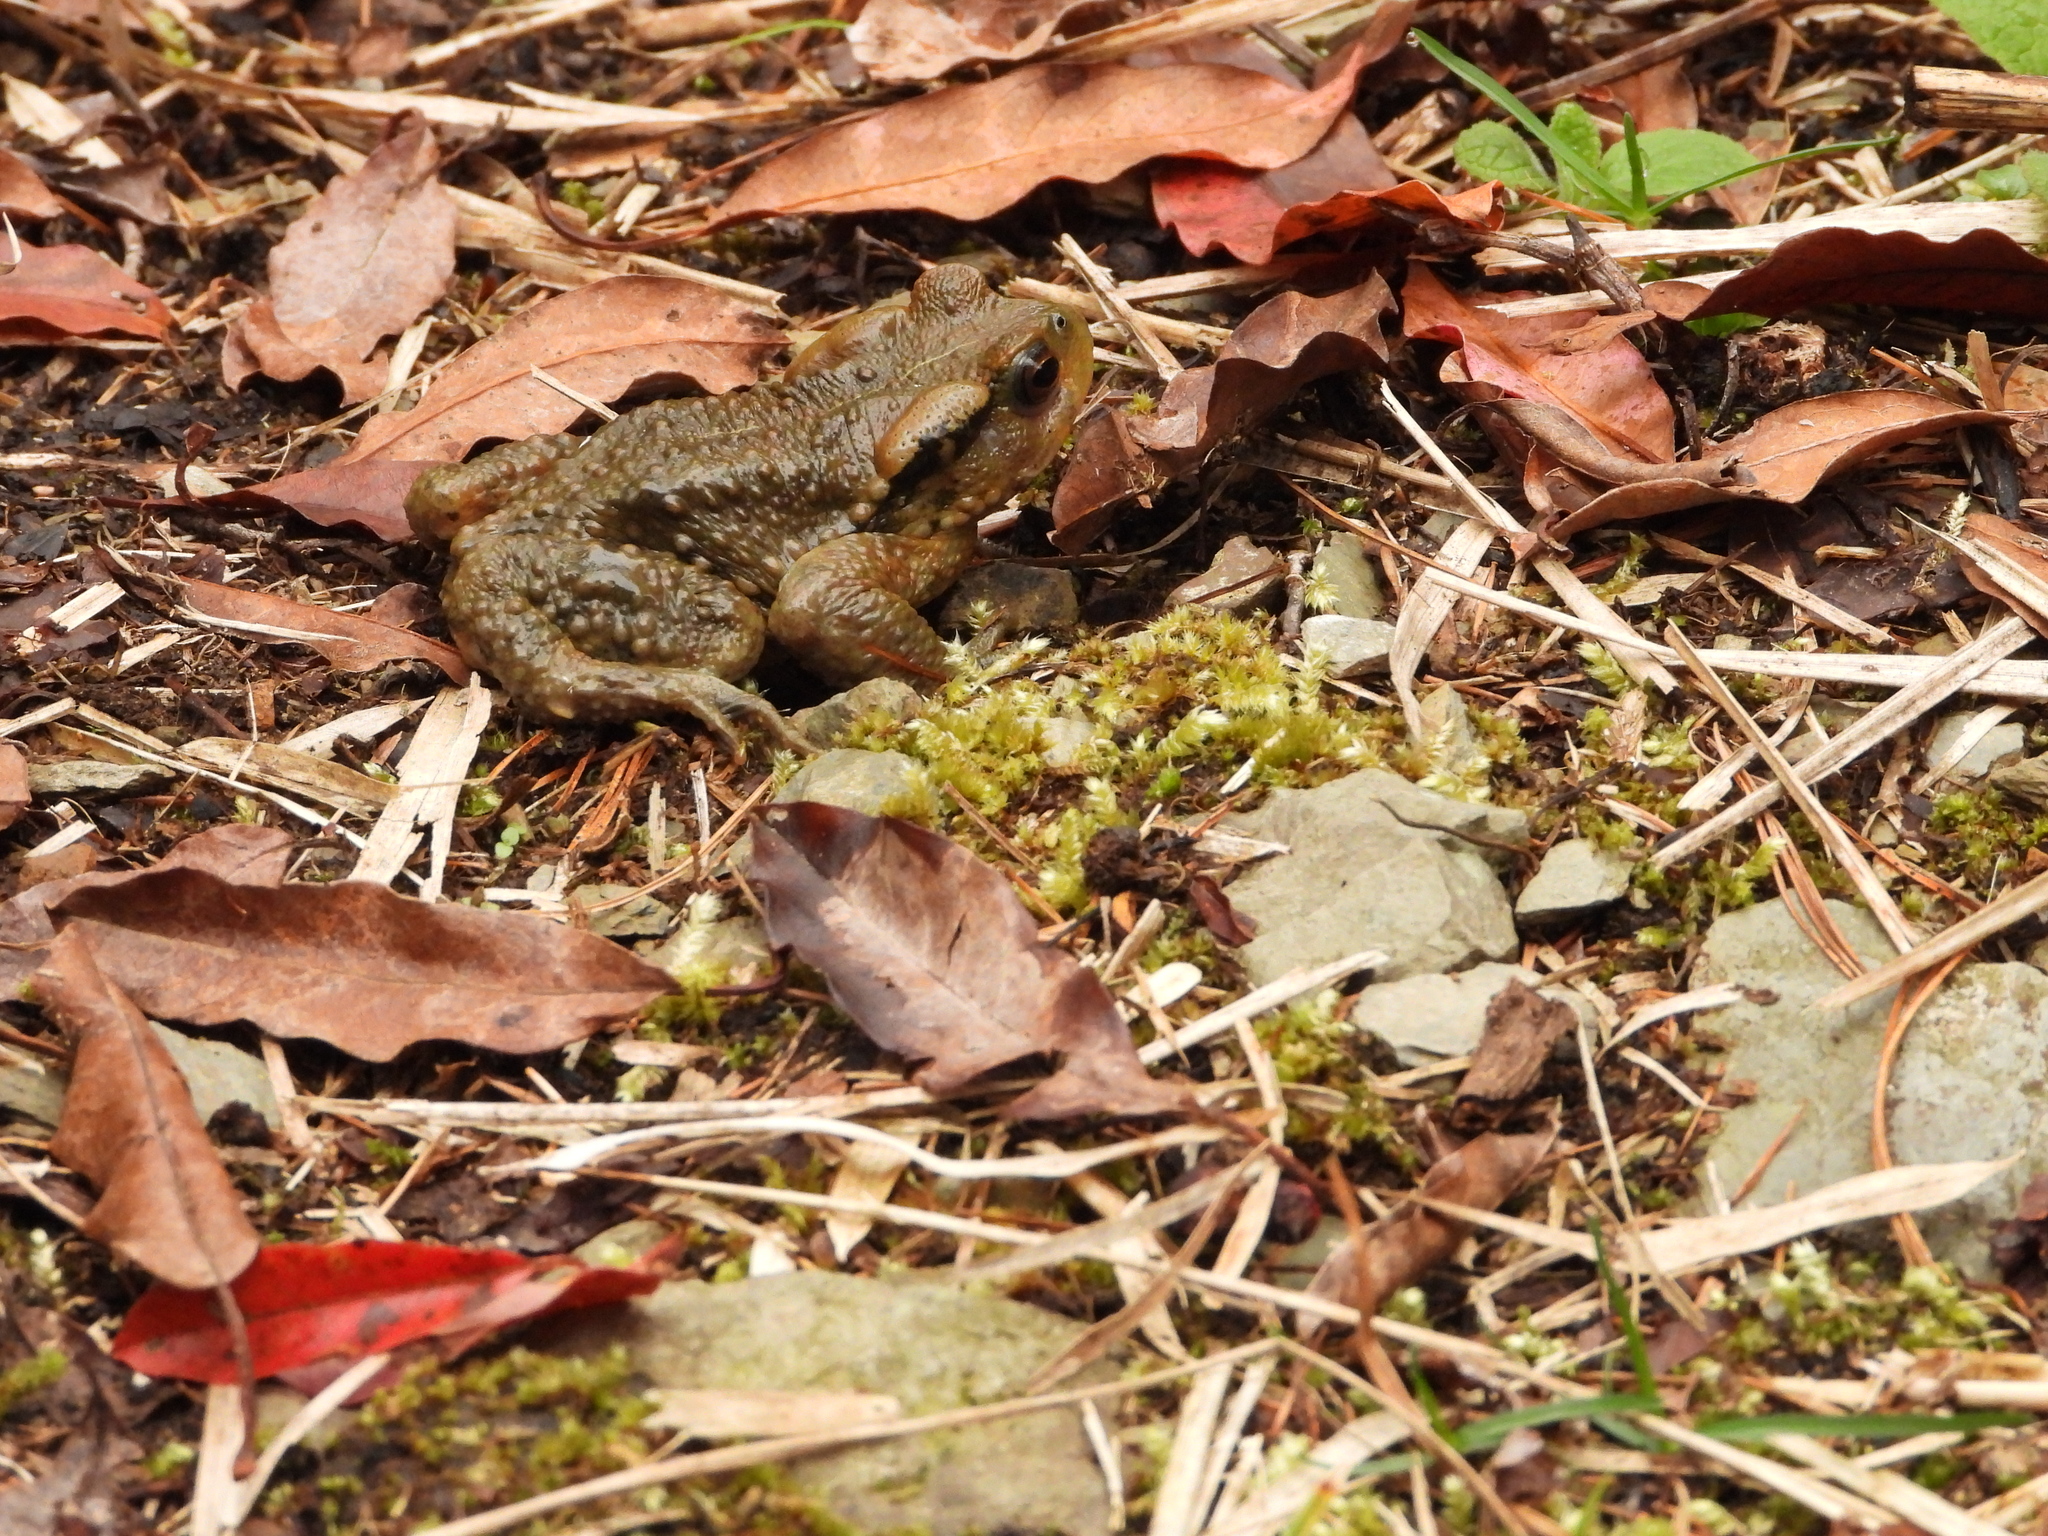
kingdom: Animalia
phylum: Chordata
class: Amphibia
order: Anura
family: Bufonidae
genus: Bufo
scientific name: Bufo bankorensis
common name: Bankor toad
